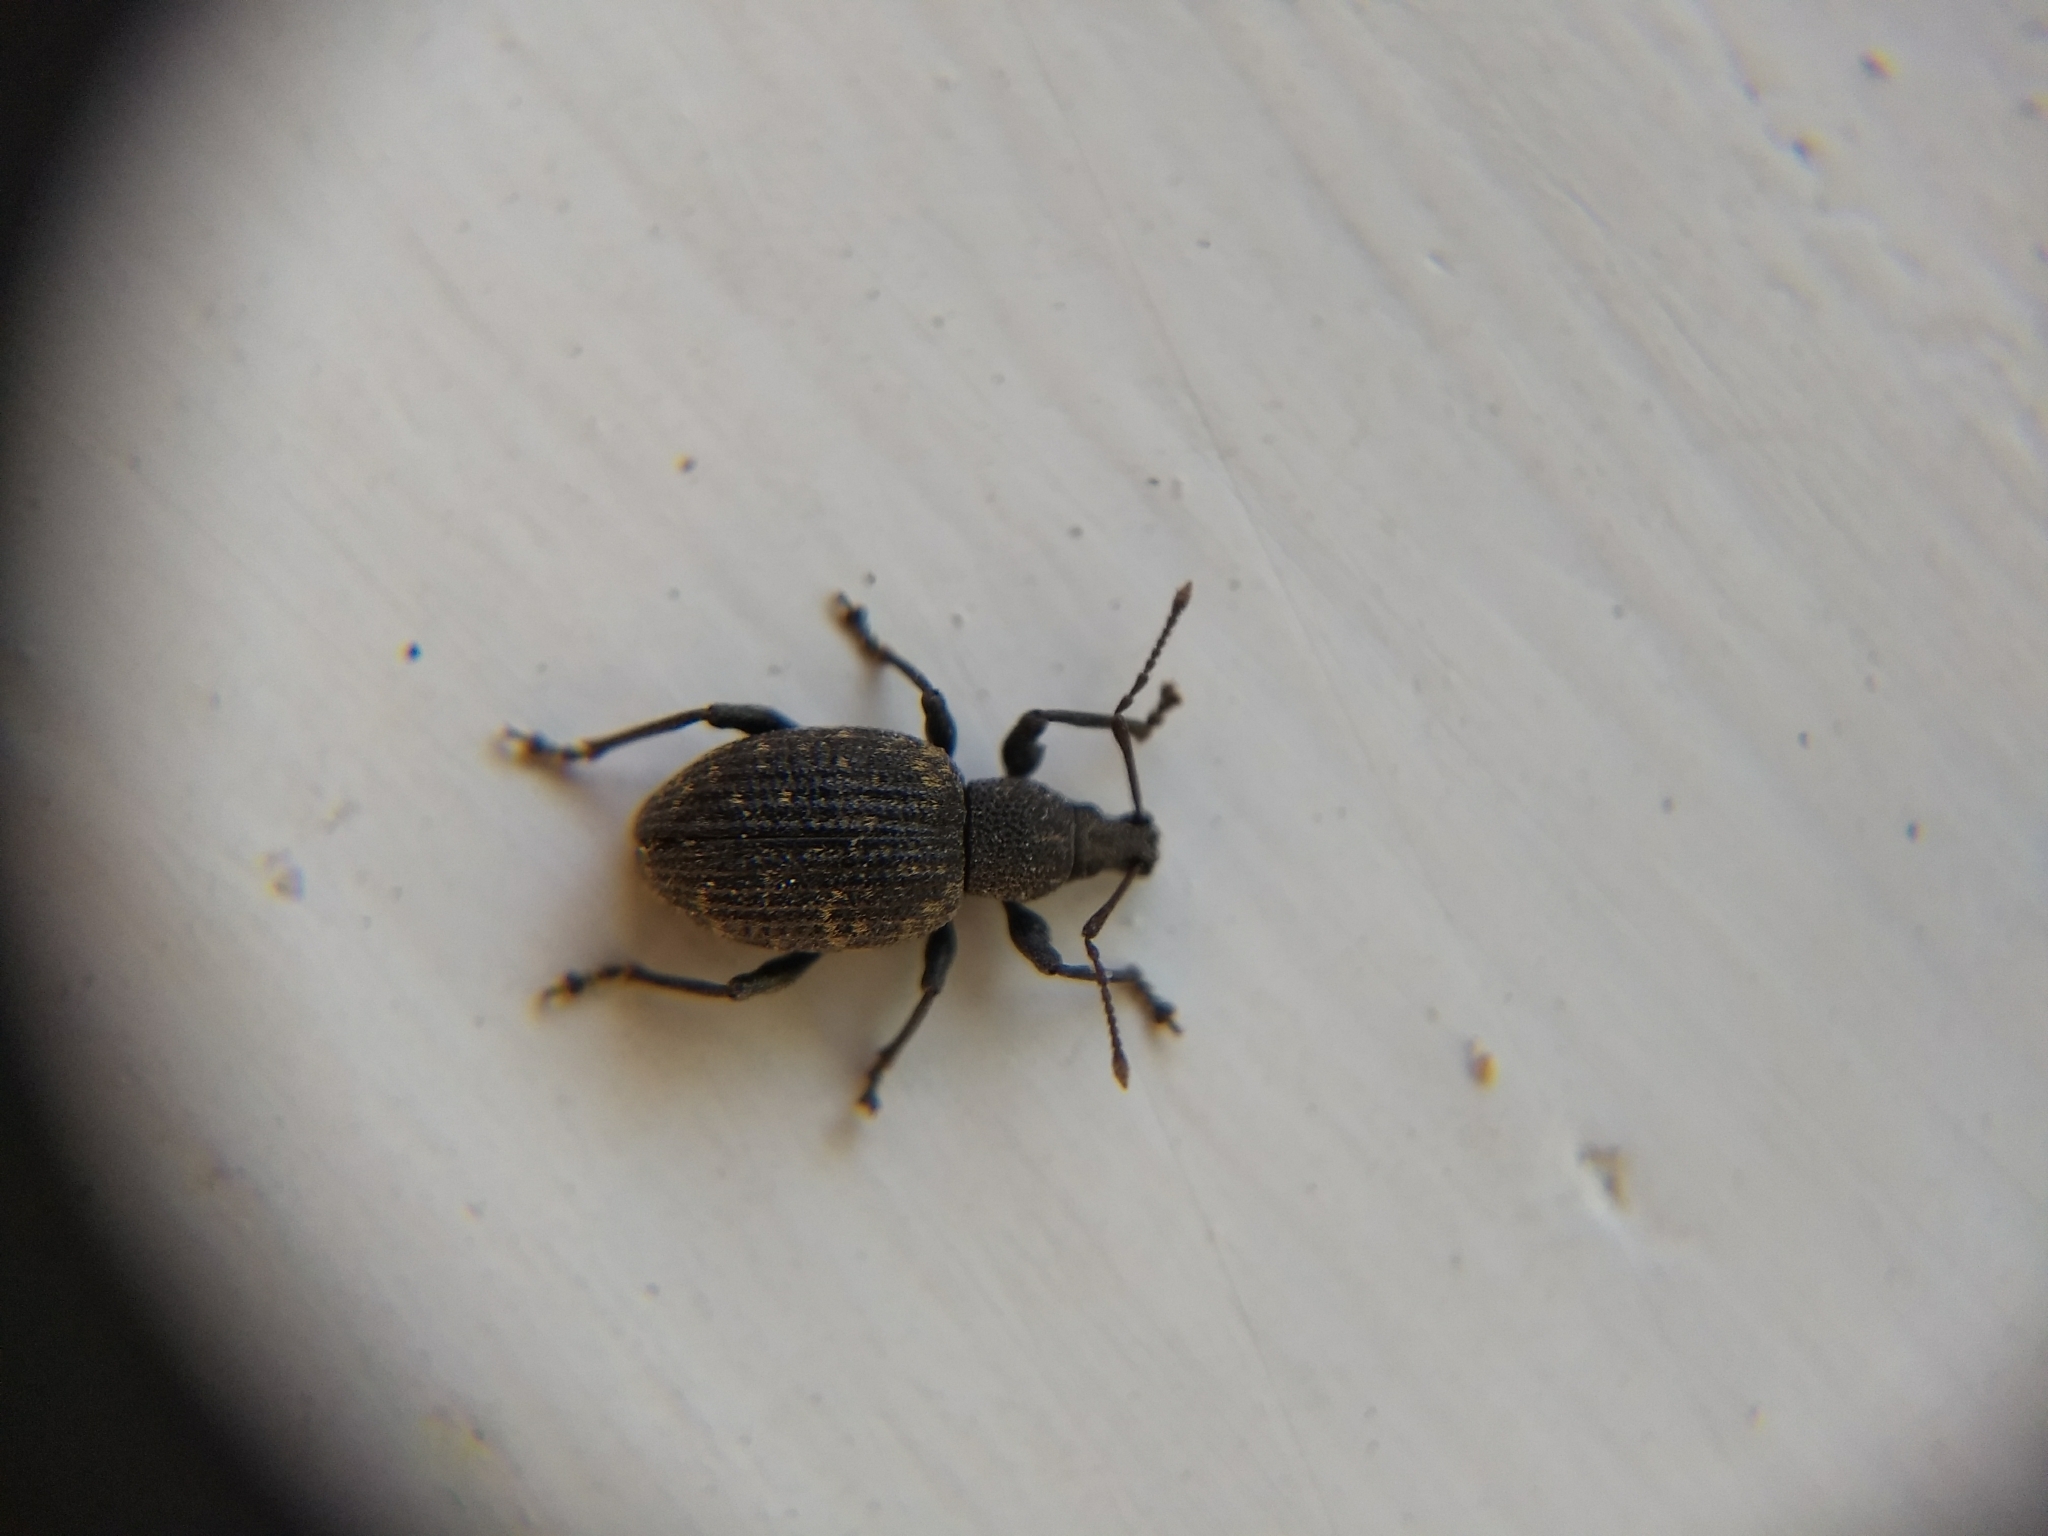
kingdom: Animalia
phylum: Arthropoda
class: Insecta
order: Coleoptera
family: Curculionidae
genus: Otiorhynchus
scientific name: Otiorhynchus sulcatus
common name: Black vine weevil
